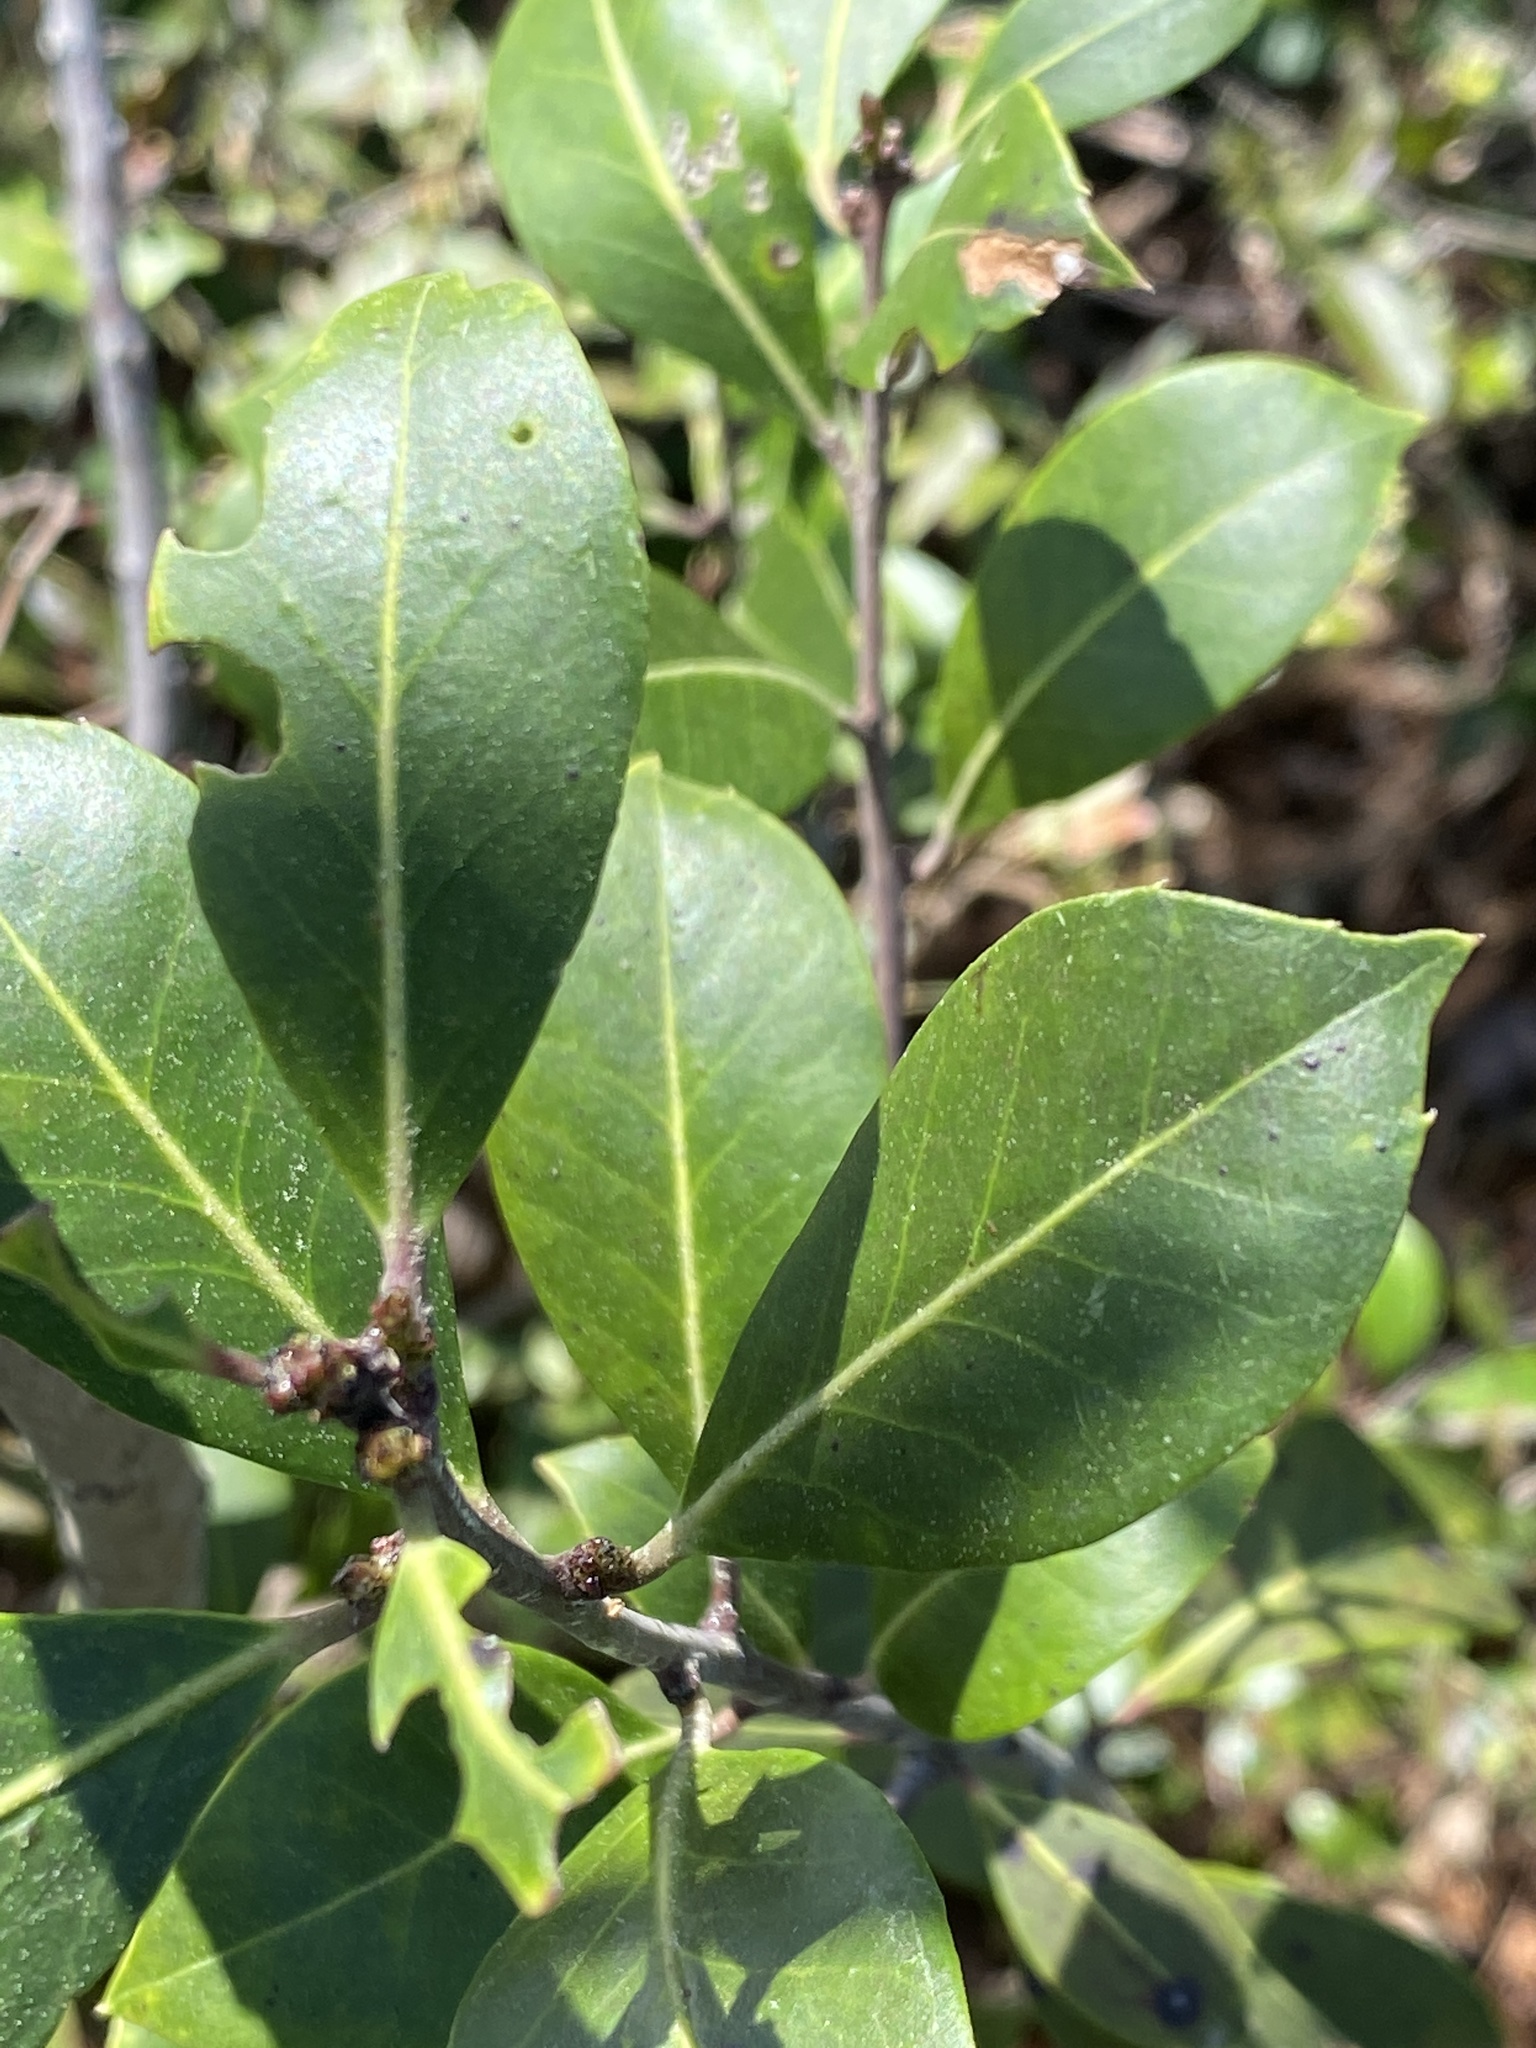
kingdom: Plantae
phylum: Tracheophyta
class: Magnoliopsida
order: Aquifoliales
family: Aquifoliaceae
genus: Ilex
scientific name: Ilex coriacea
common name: Sweet gallberry
